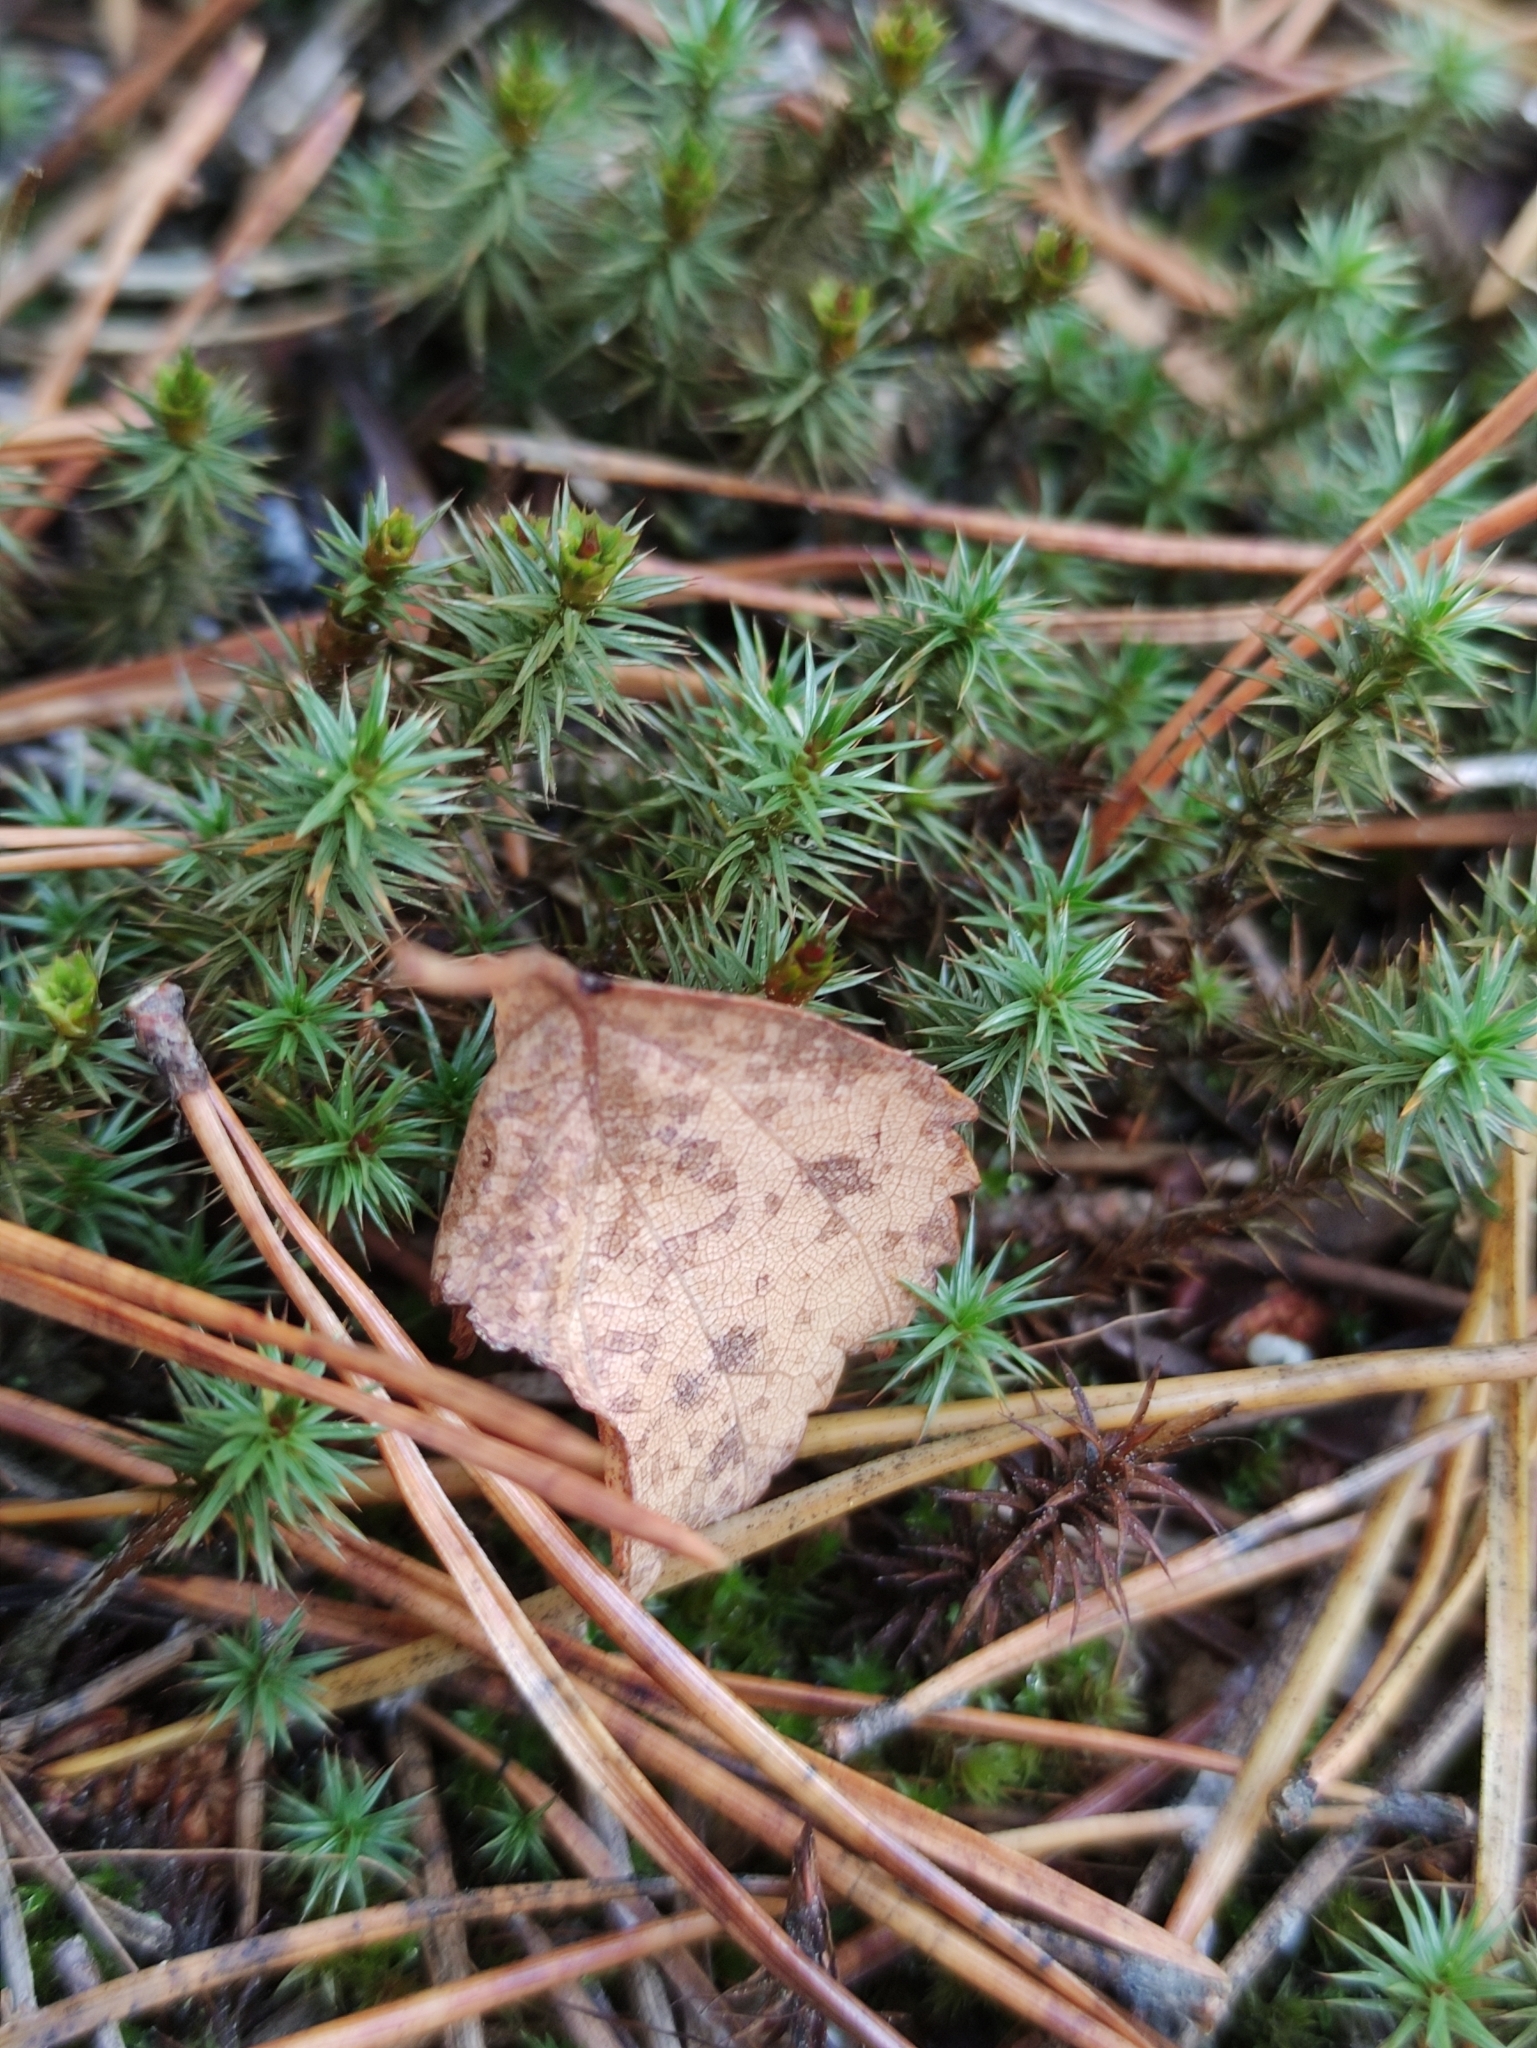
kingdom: Plantae
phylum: Bryophyta
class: Polytrichopsida
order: Polytrichales
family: Polytrichaceae
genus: Polytrichum
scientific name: Polytrichum juniperinum
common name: Juniper haircap moss
